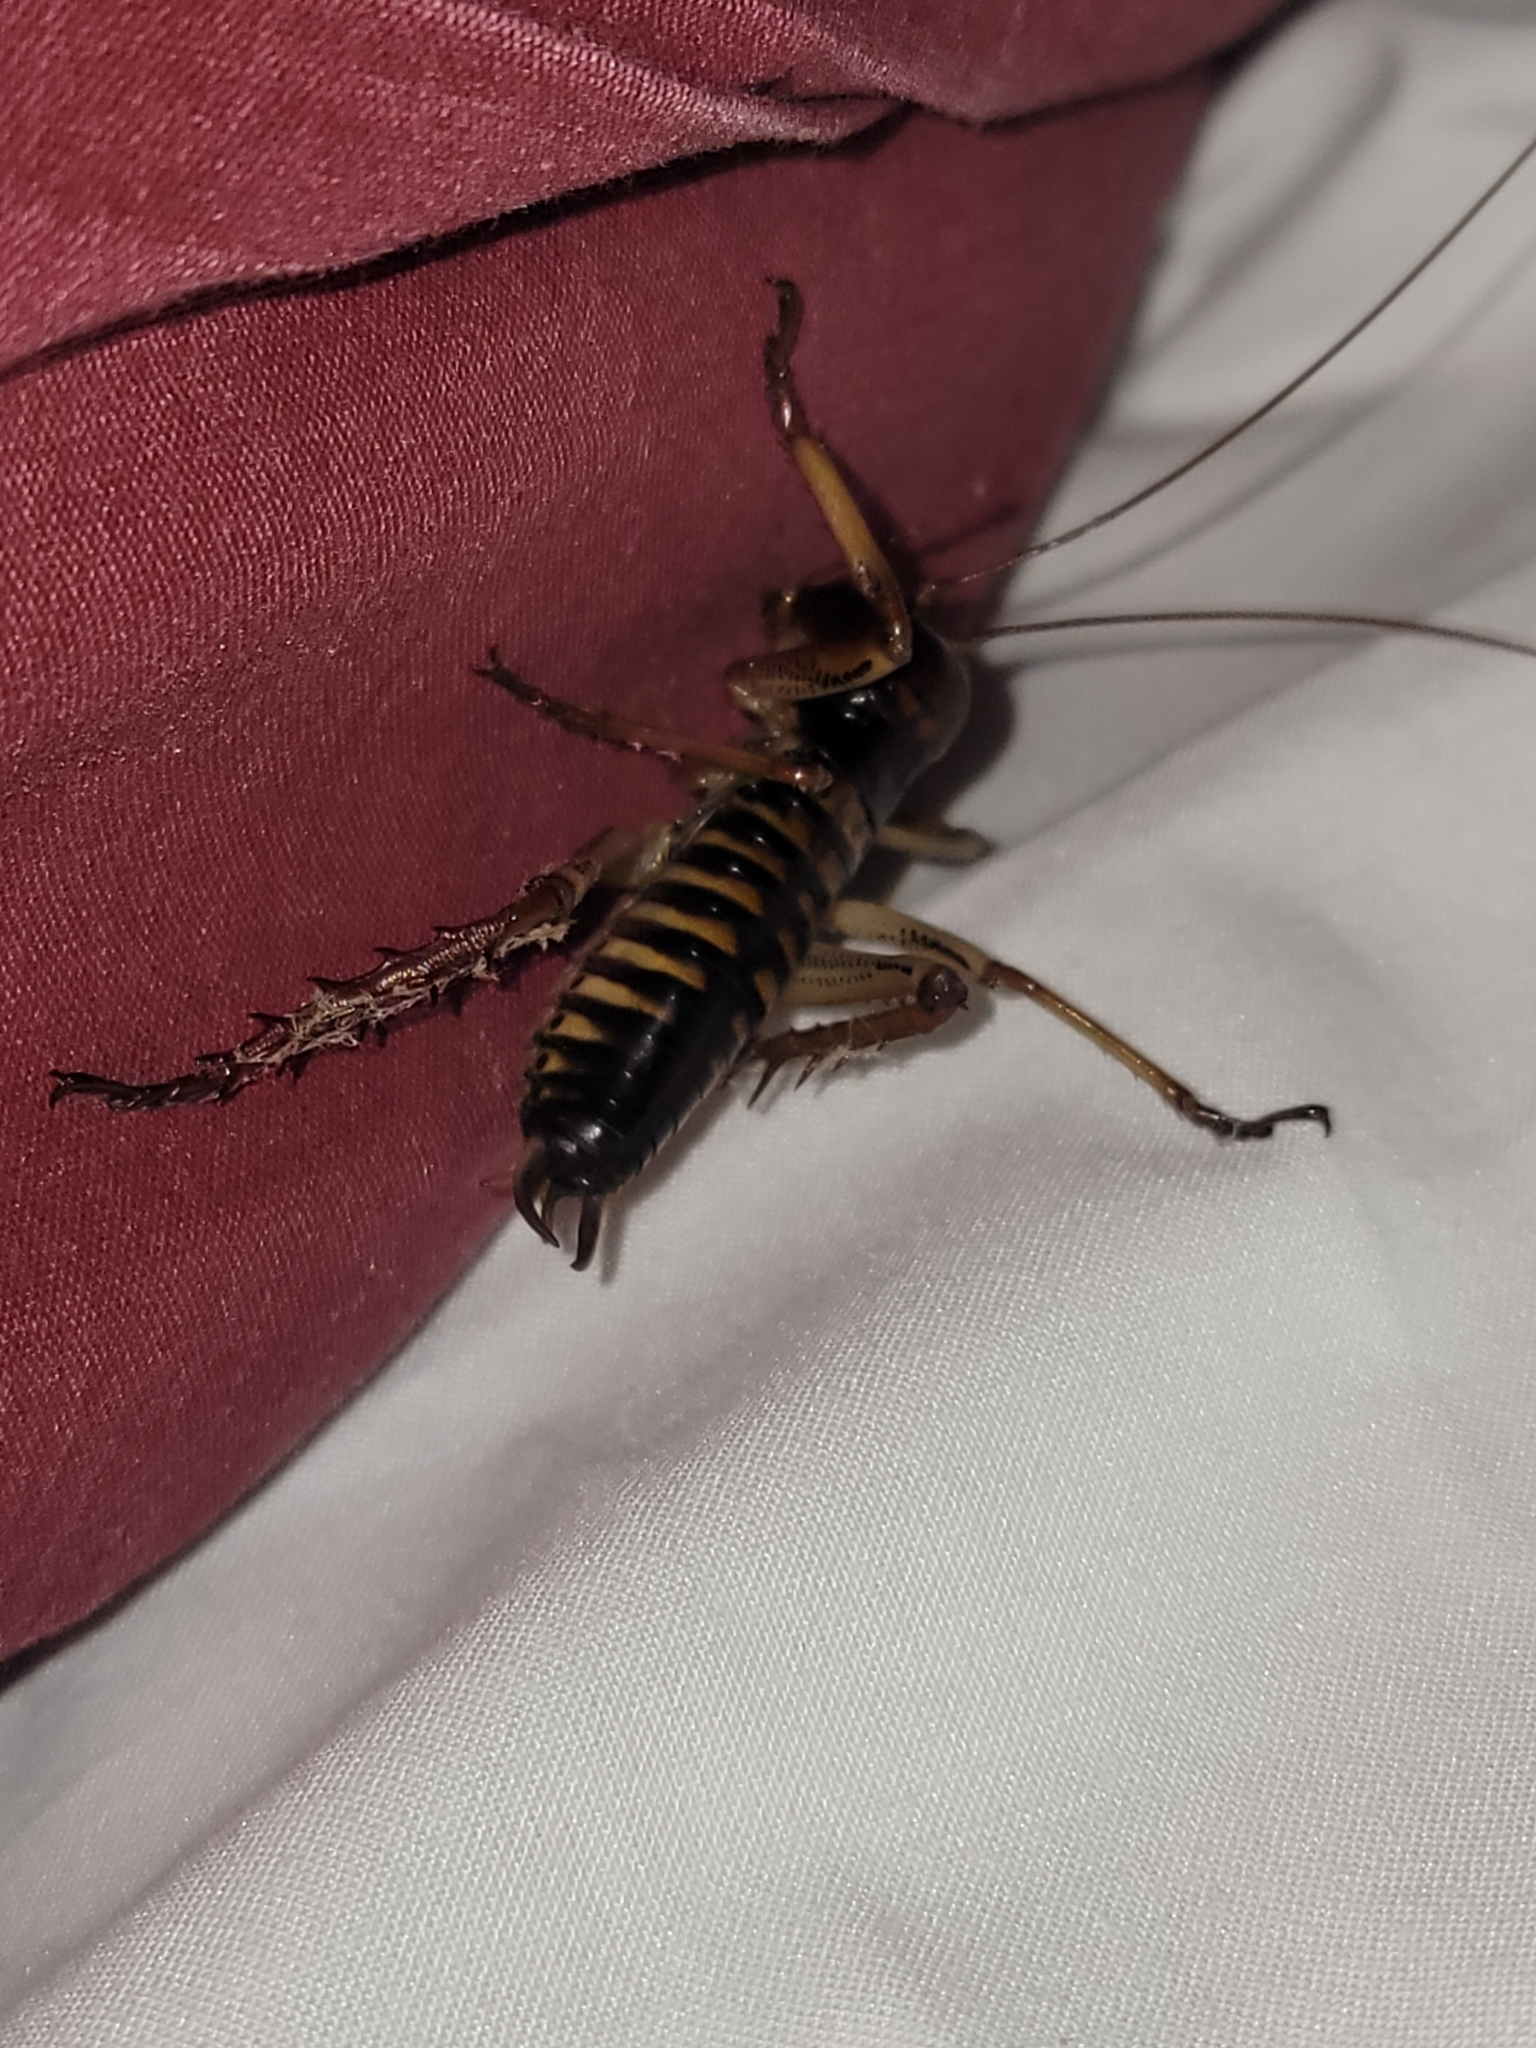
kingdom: Animalia
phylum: Arthropoda
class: Insecta
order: Orthoptera
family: Anostostomatidae
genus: Hemideina
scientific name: Hemideina crassidens
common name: Wellington tree weta
